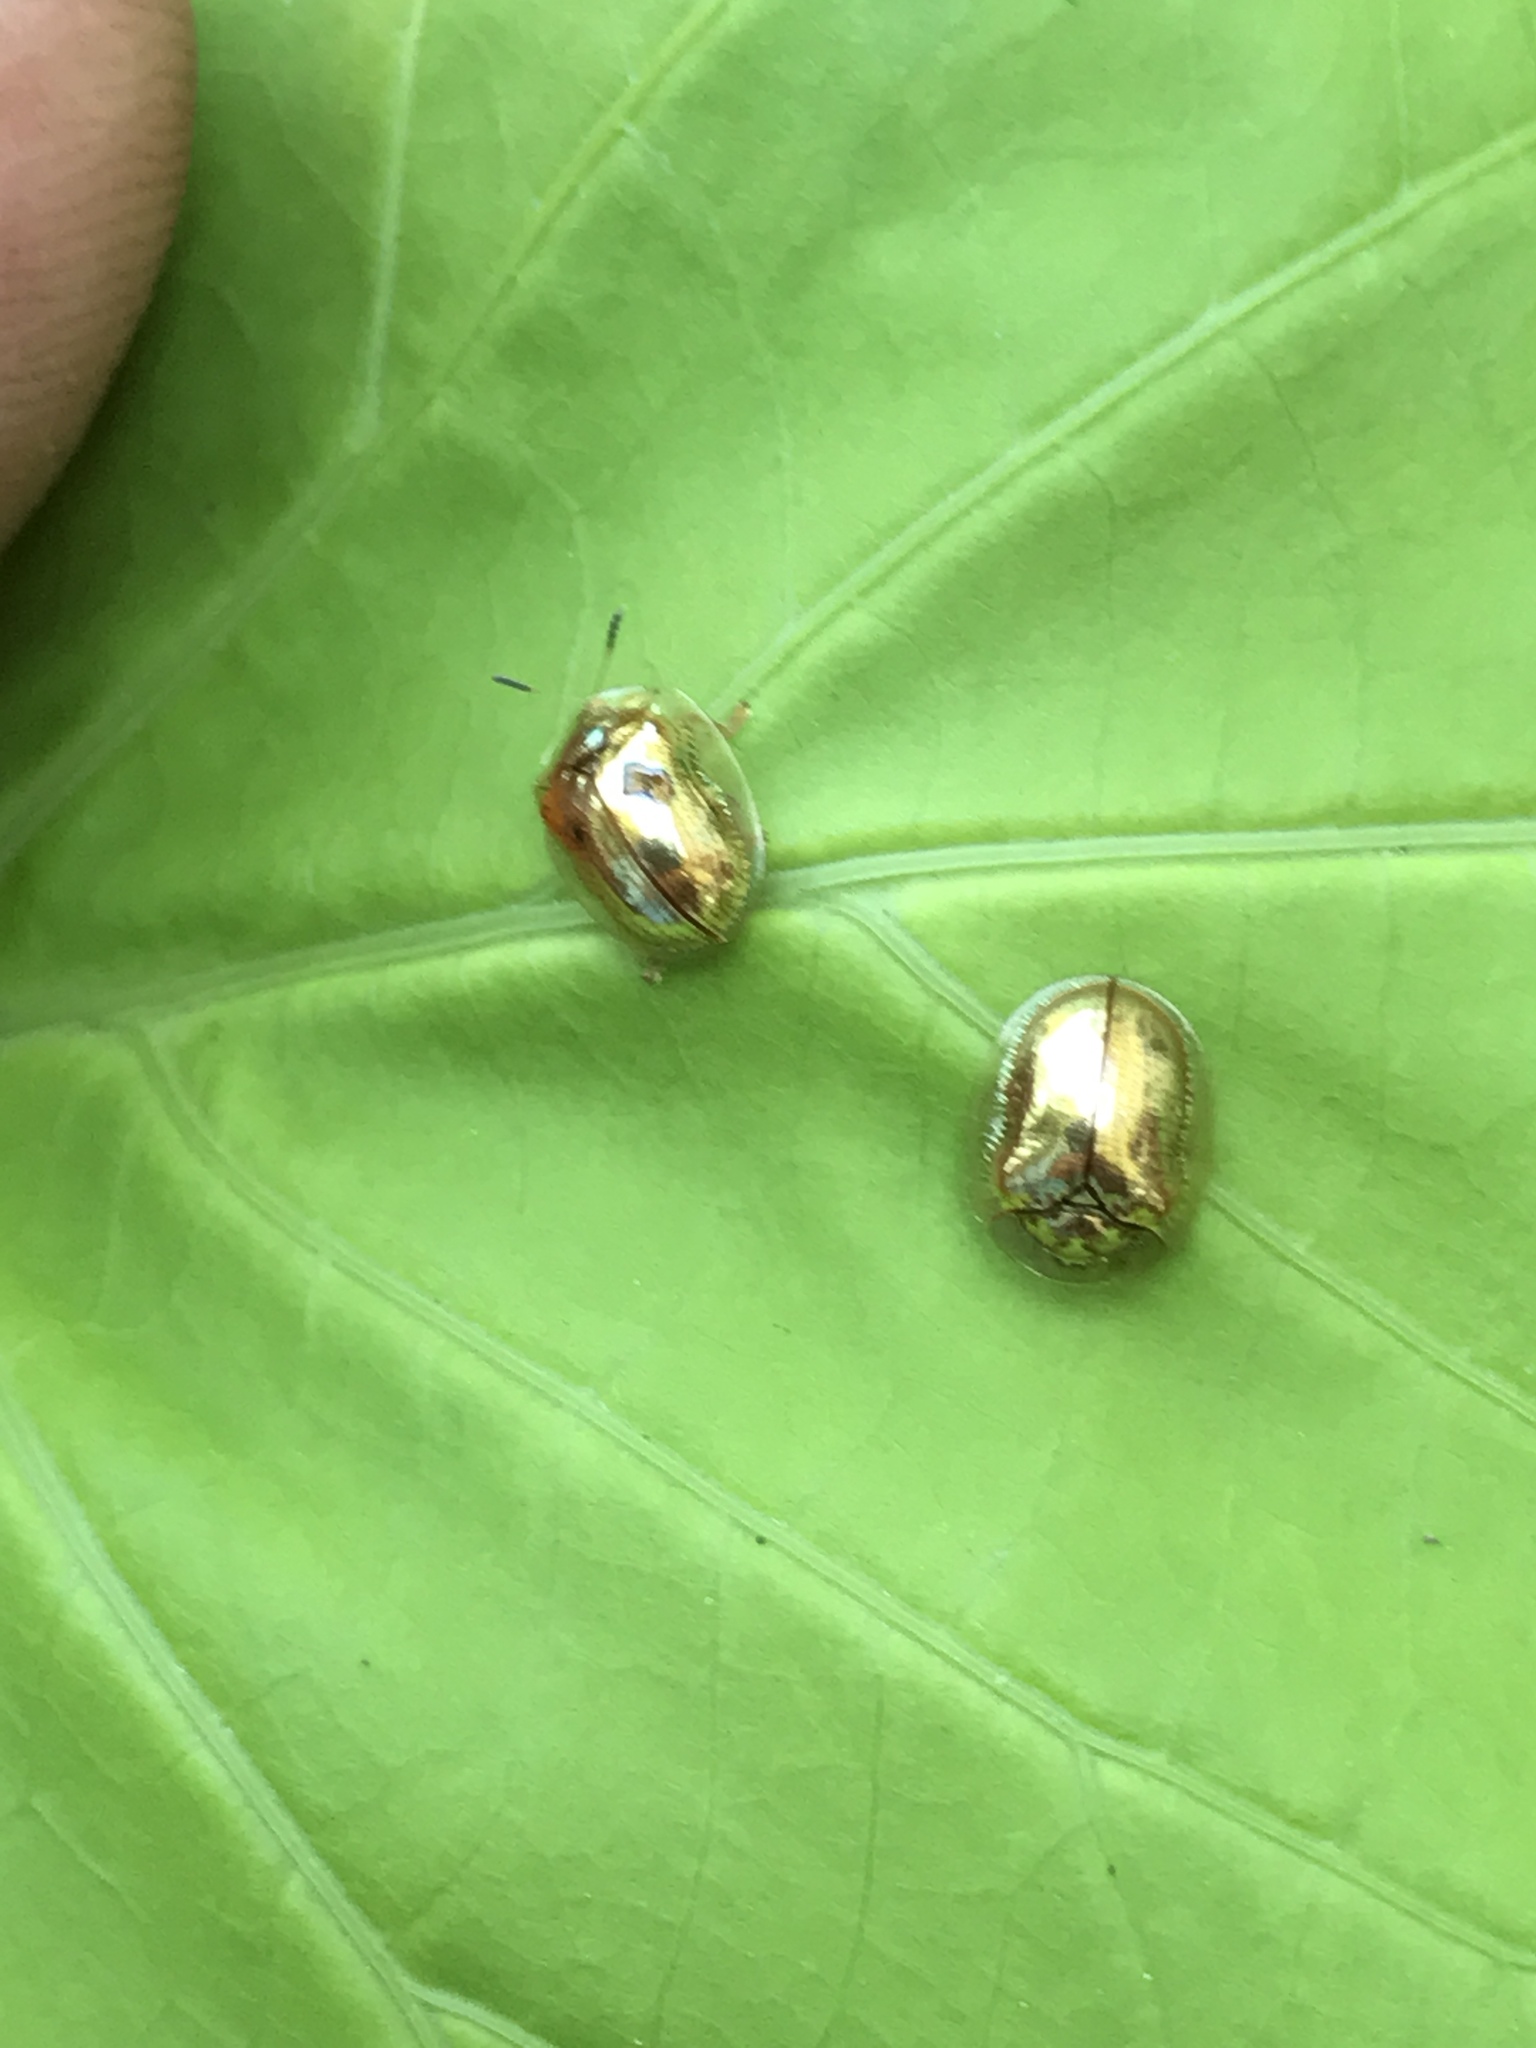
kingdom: Animalia
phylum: Arthropoda
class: Insecta
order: Coleoptera
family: Chrysomelidae
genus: Charidotella
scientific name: Charidotella sexpunctata
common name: Golden tortoise beetle
